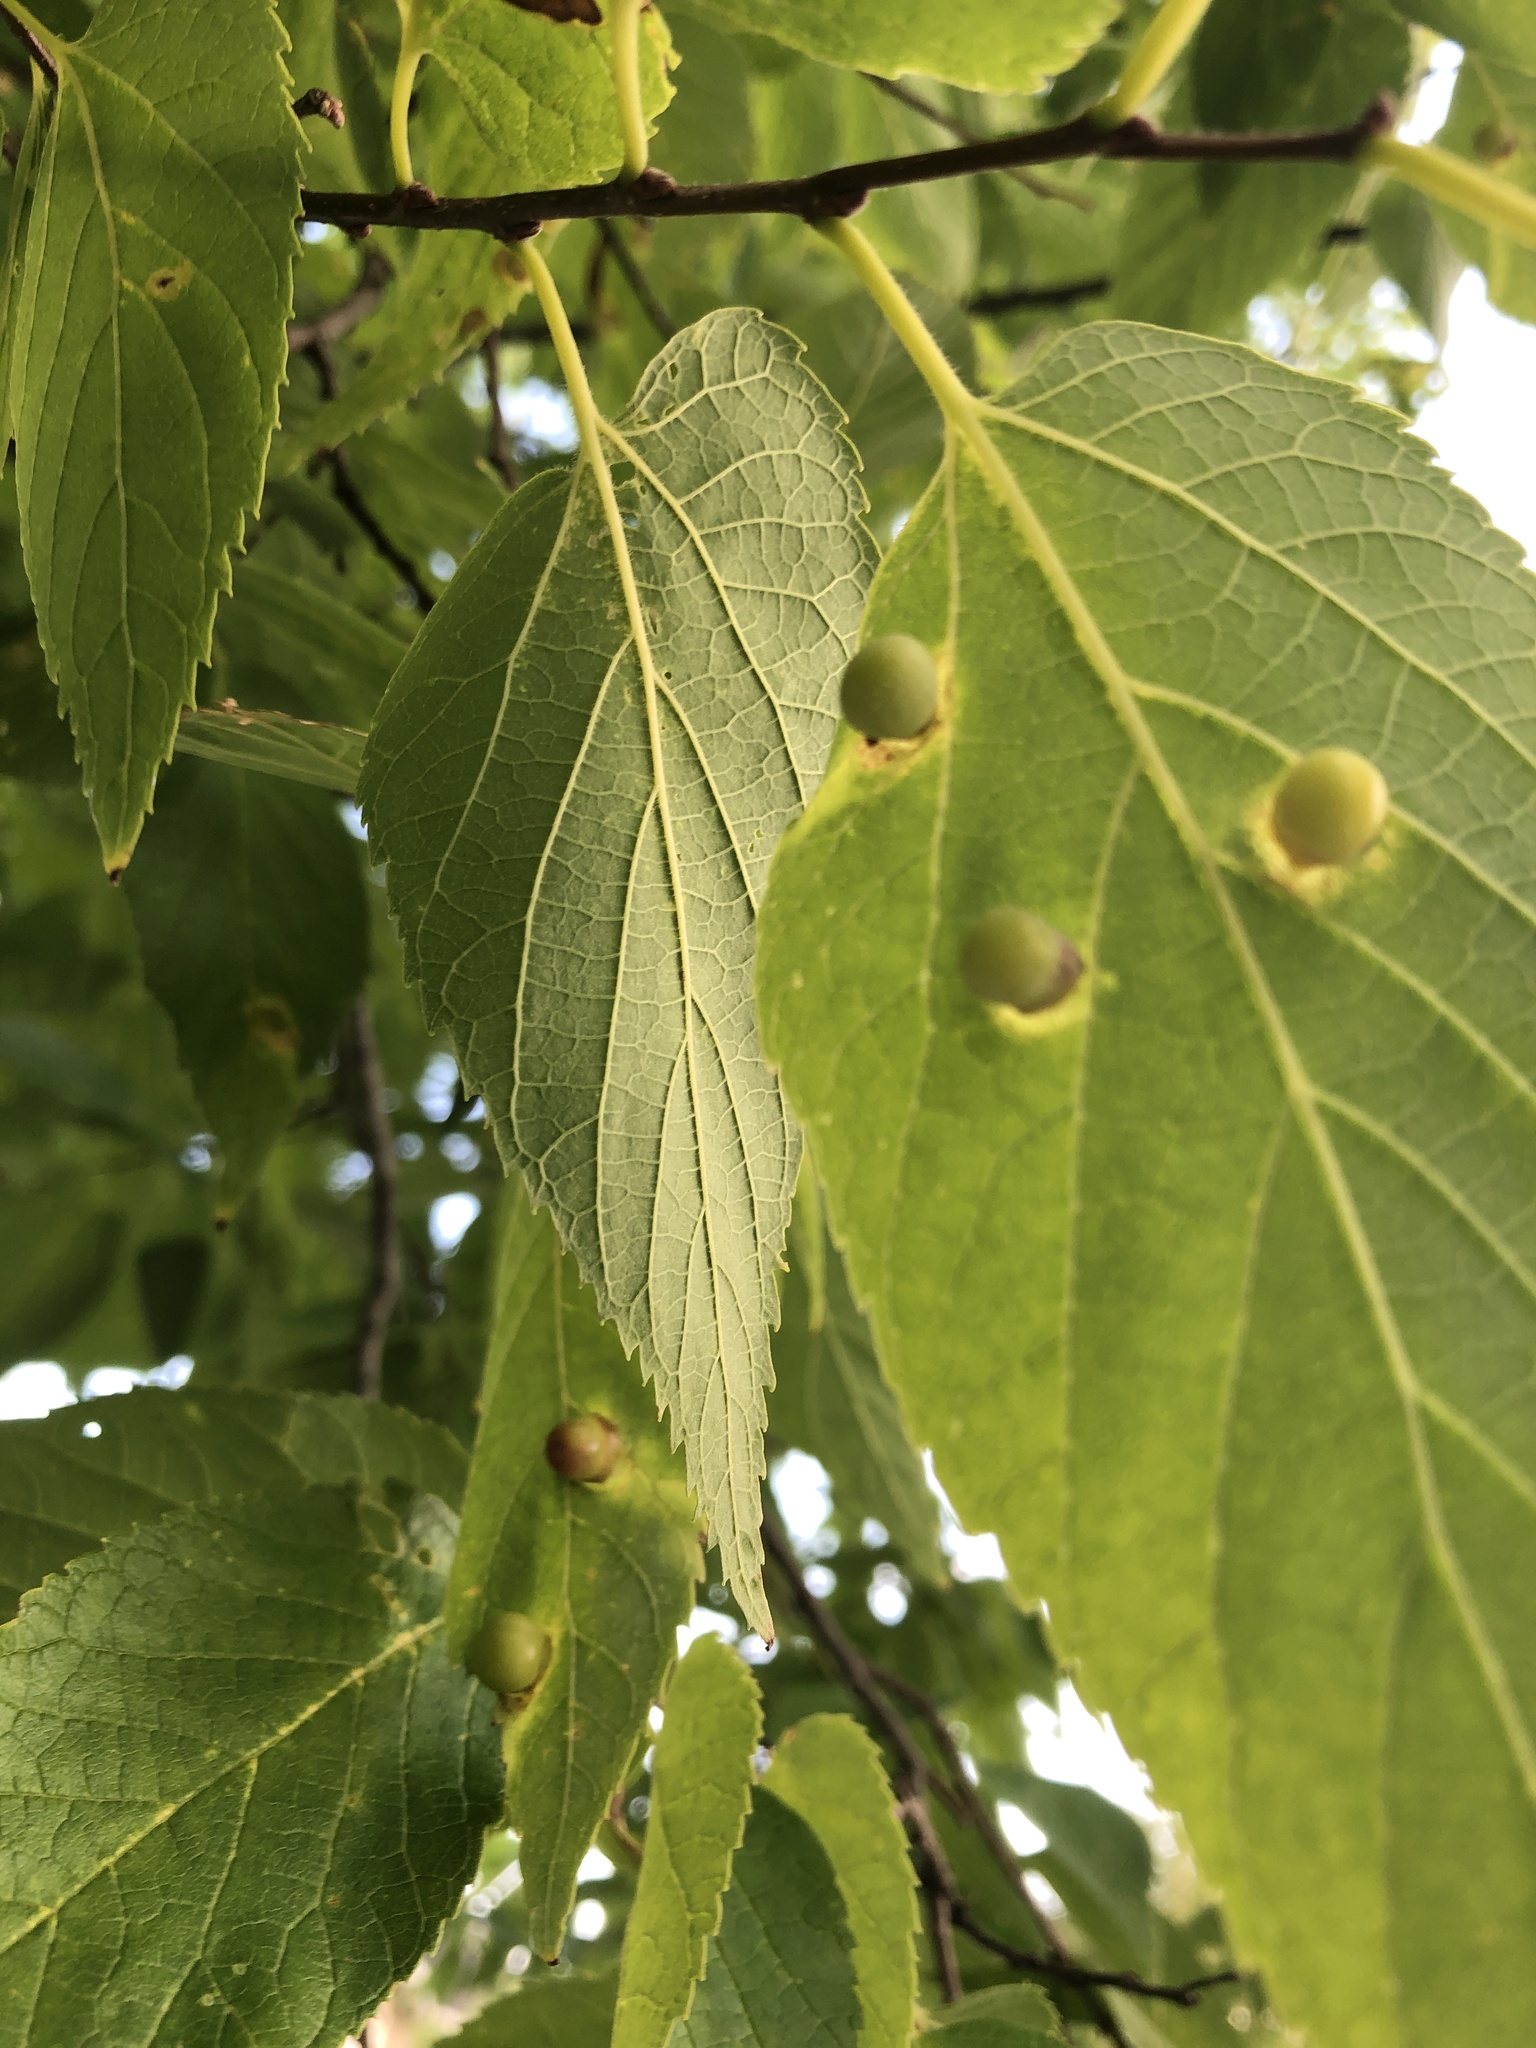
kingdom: Animalia
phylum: Arthropoda
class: Insecta
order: Hemiptera
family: Aphalaridae
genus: Pachypsylla
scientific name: Pachypsylla celtidismamma
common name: Hackberry nipplegall psyllid
